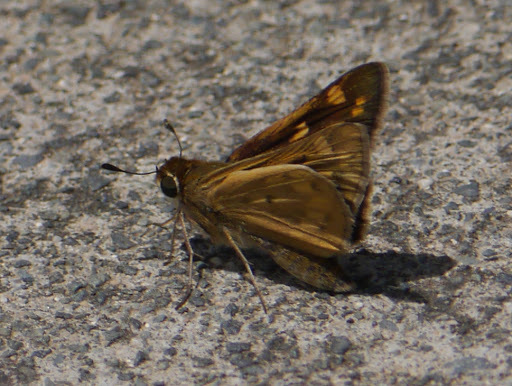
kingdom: Animalia
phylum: Arthropoda
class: Insecta
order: Lepidoptera
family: Hesperiidae
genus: Hylephila
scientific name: Hylephila phyleus
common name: Fiery skipper
